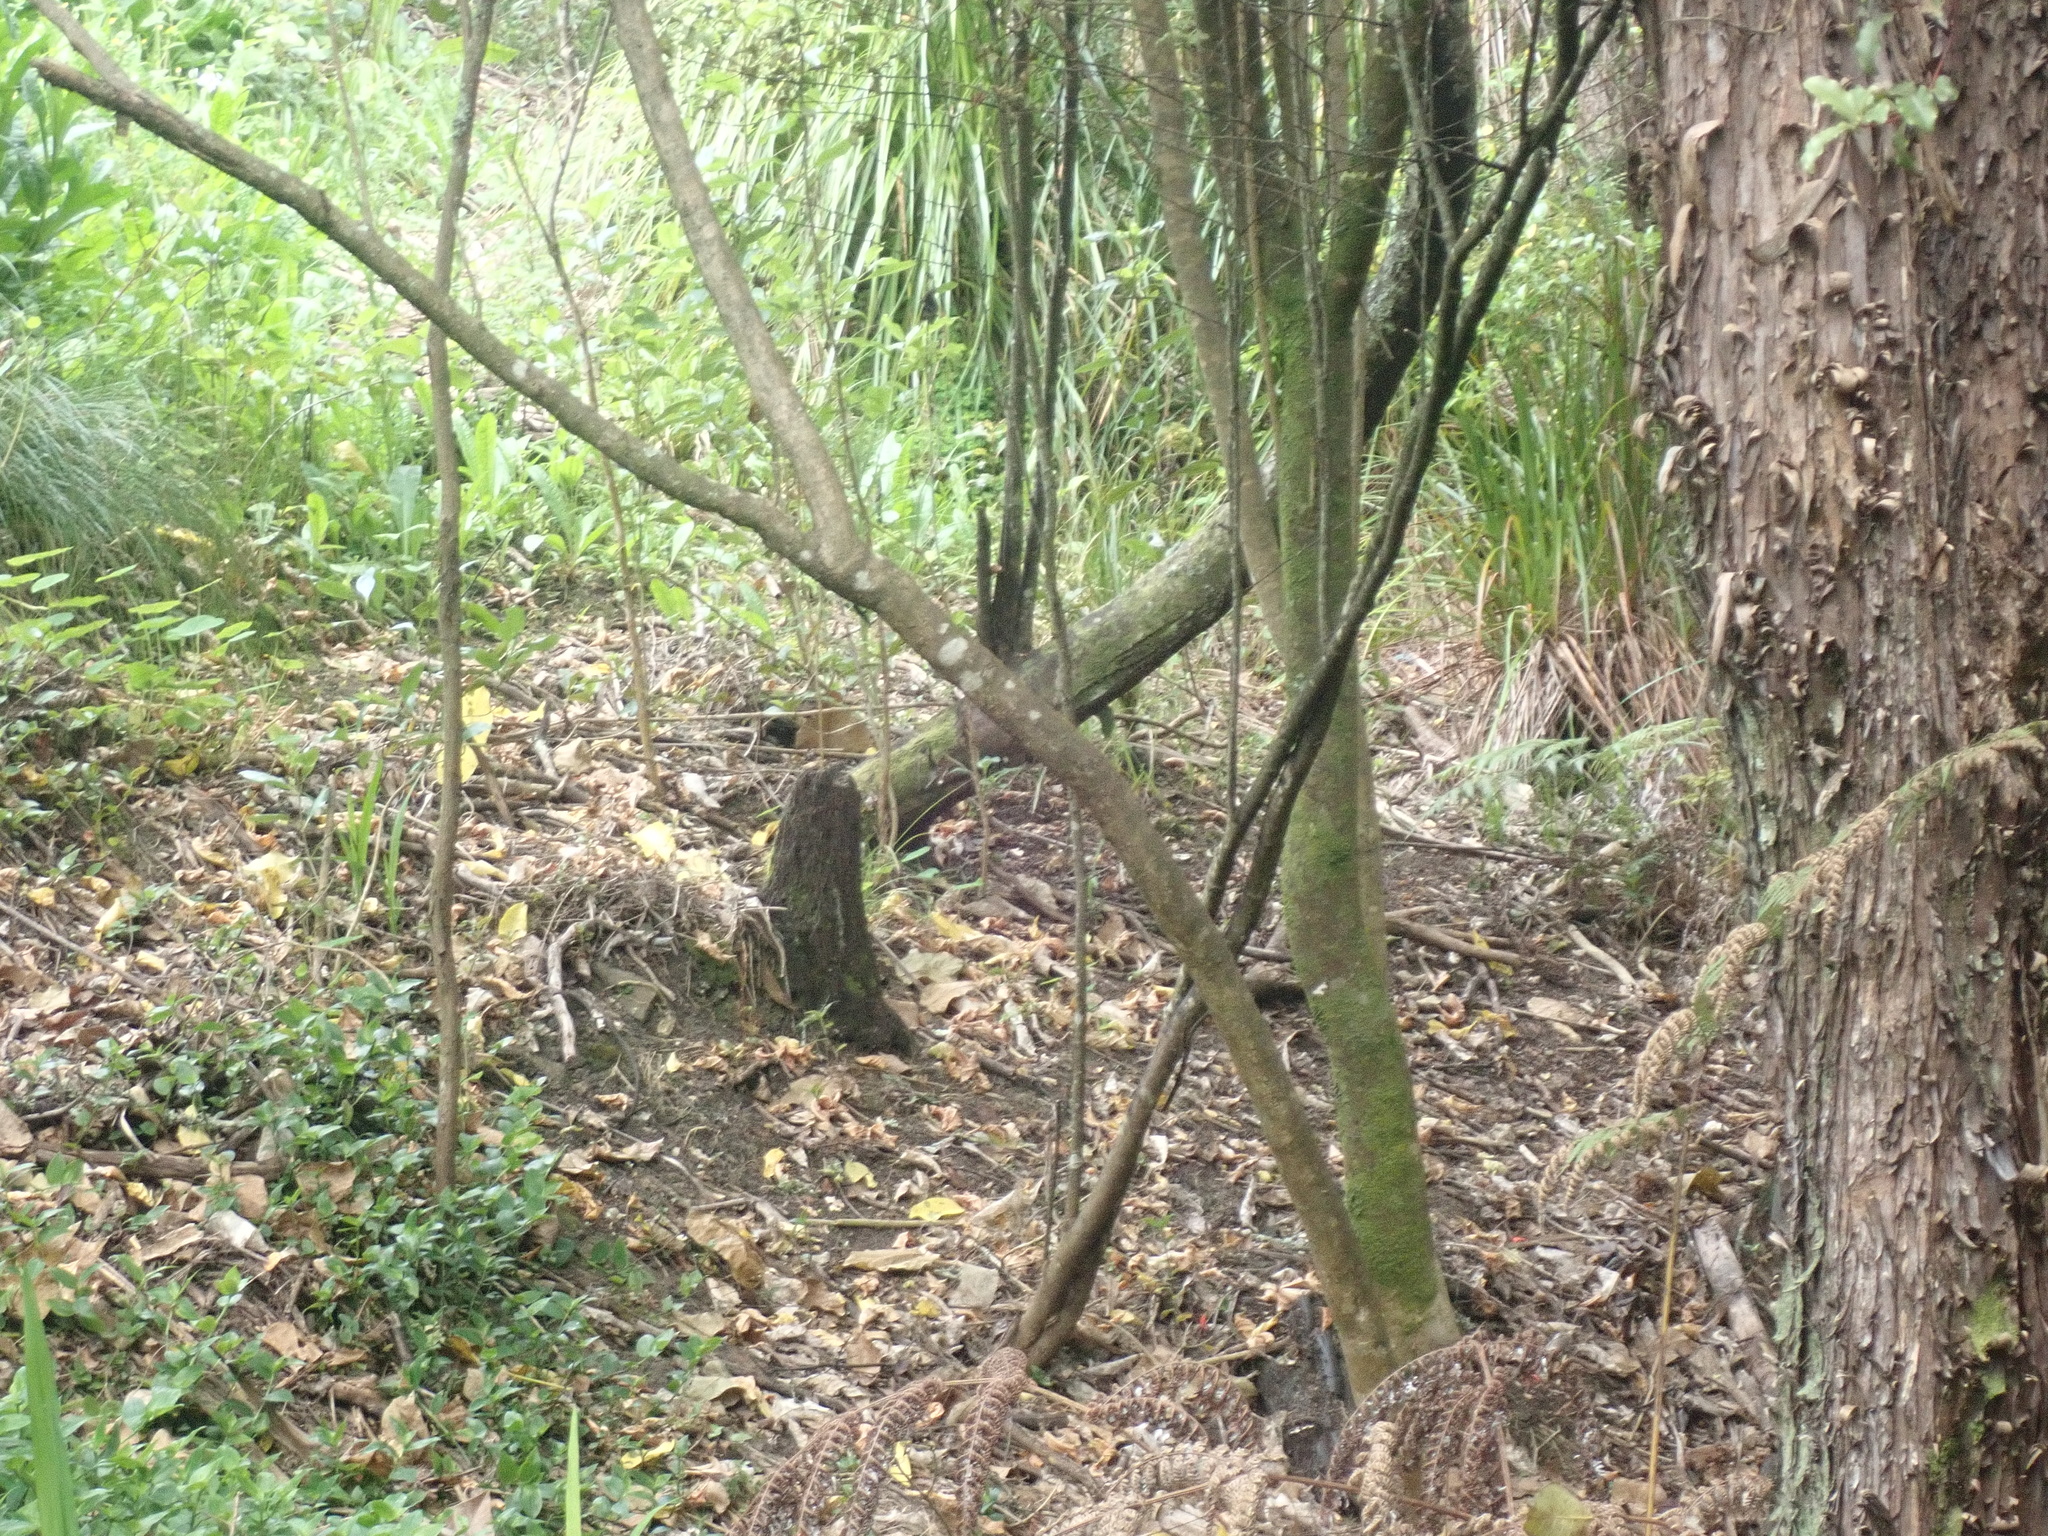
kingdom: Plantae
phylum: Tracheophyta
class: Magnoliopsida
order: Ericales
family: Primulaceae
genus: Myrsine
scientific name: Myrsine australis
